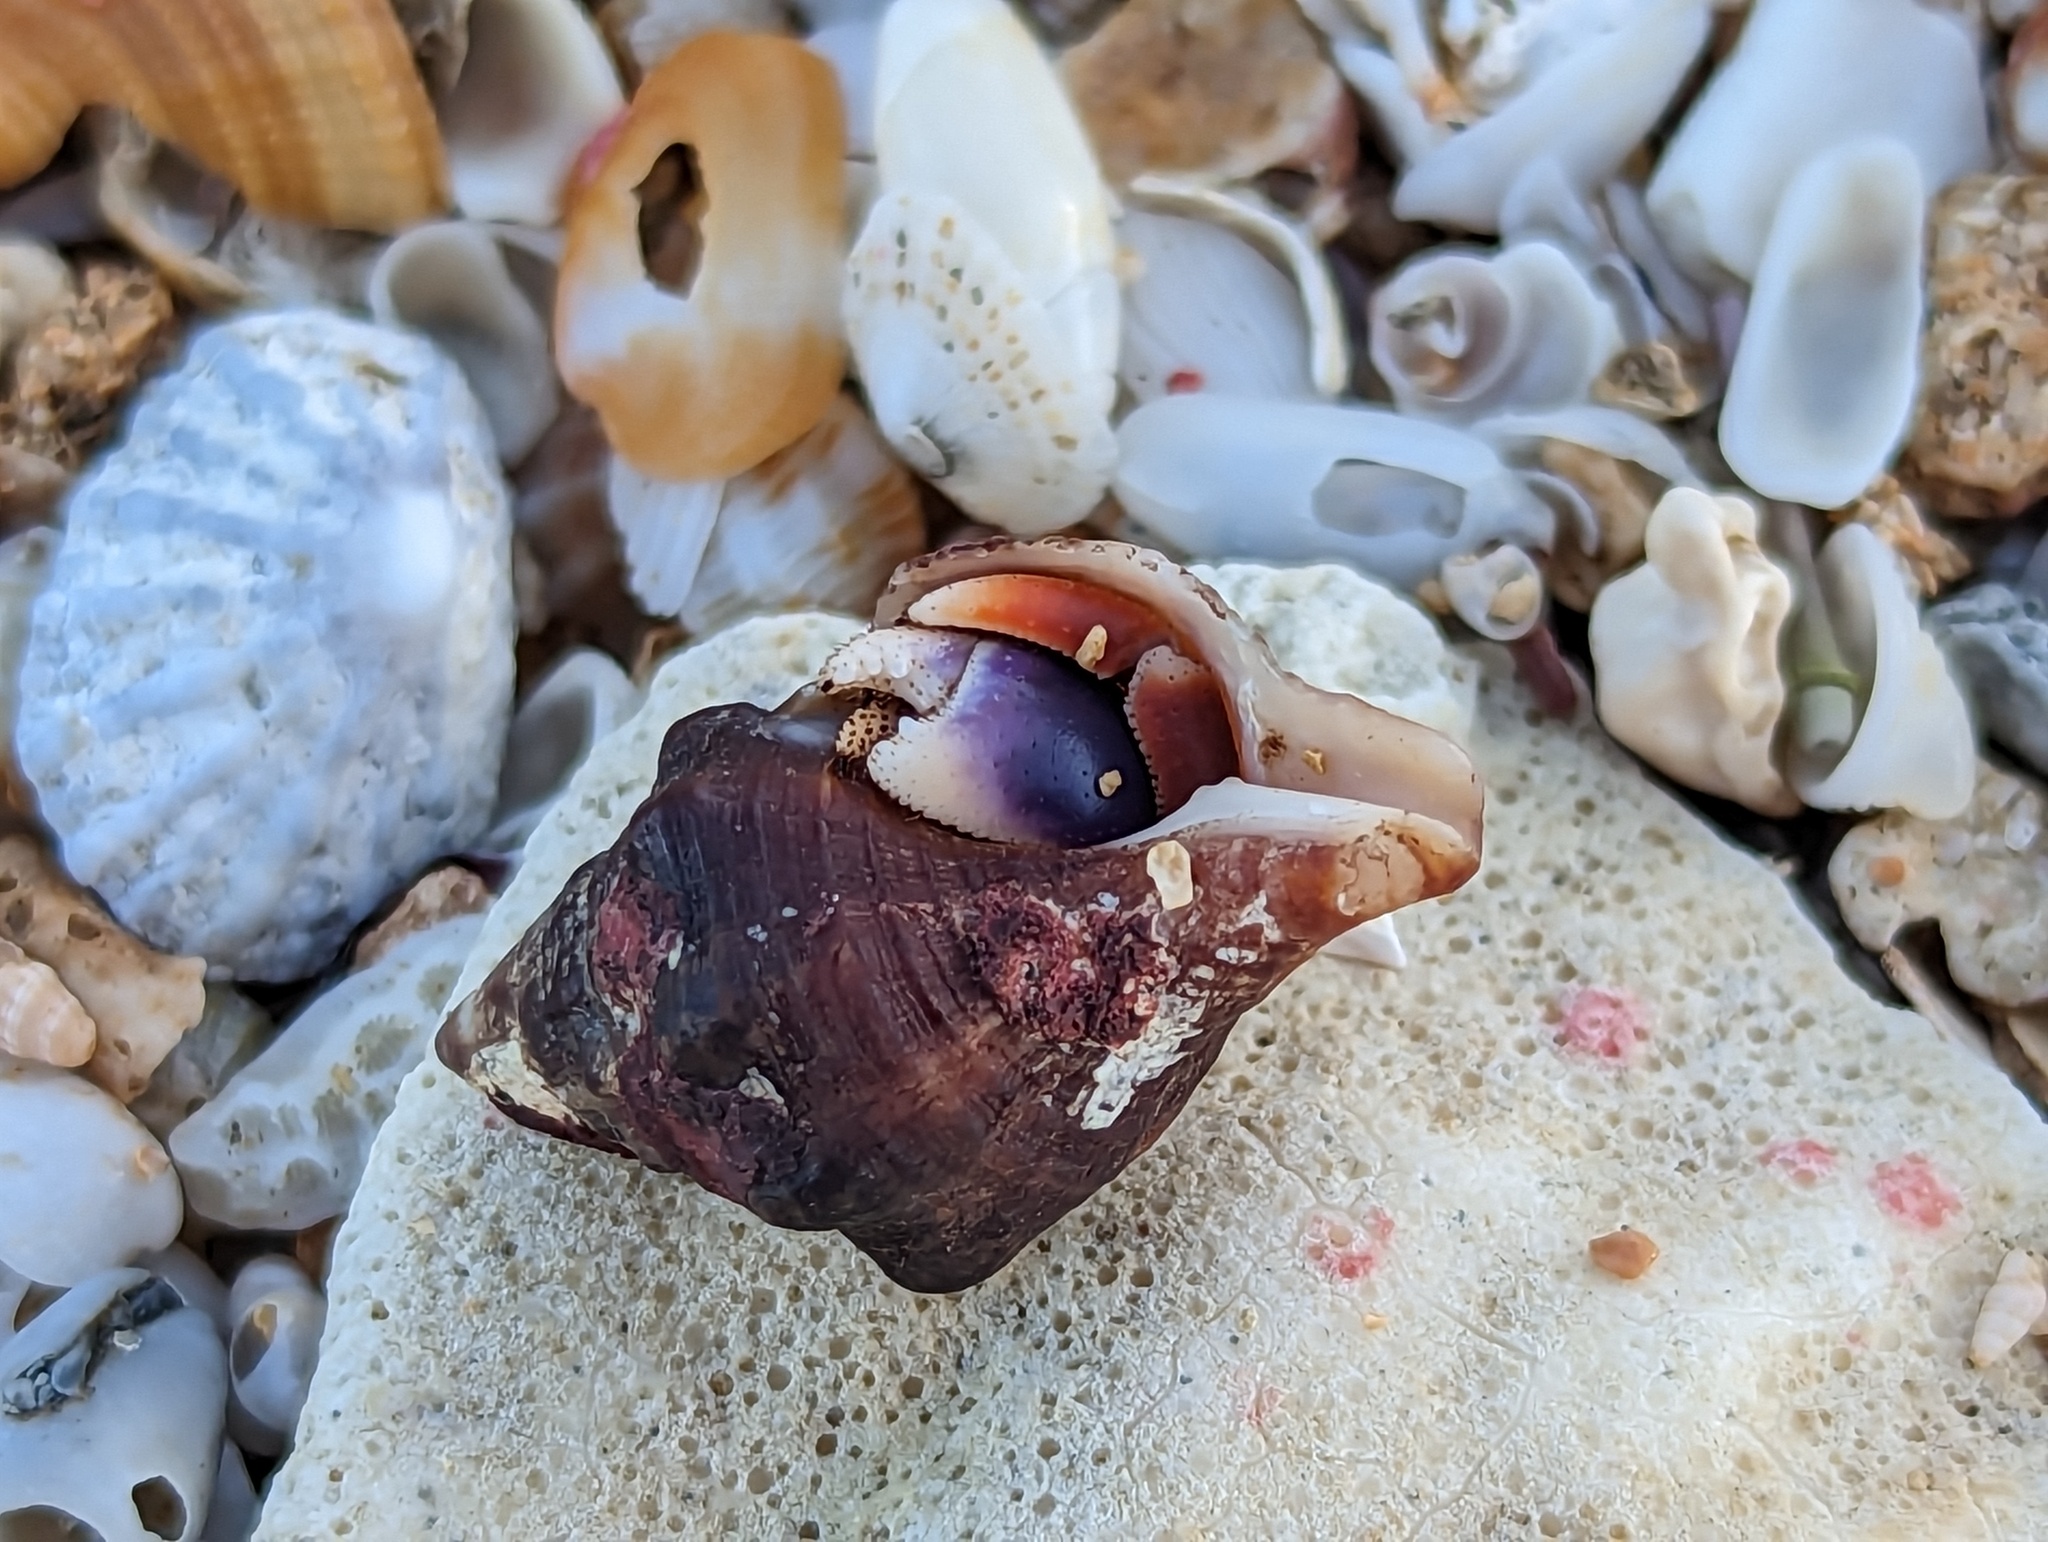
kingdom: Animalia
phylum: Arthropoda
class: Malacostraca
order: Decapoda
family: Coenobitidae
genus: Coenobita
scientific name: Coenobita clypeatus
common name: Caribbean hermit crab
